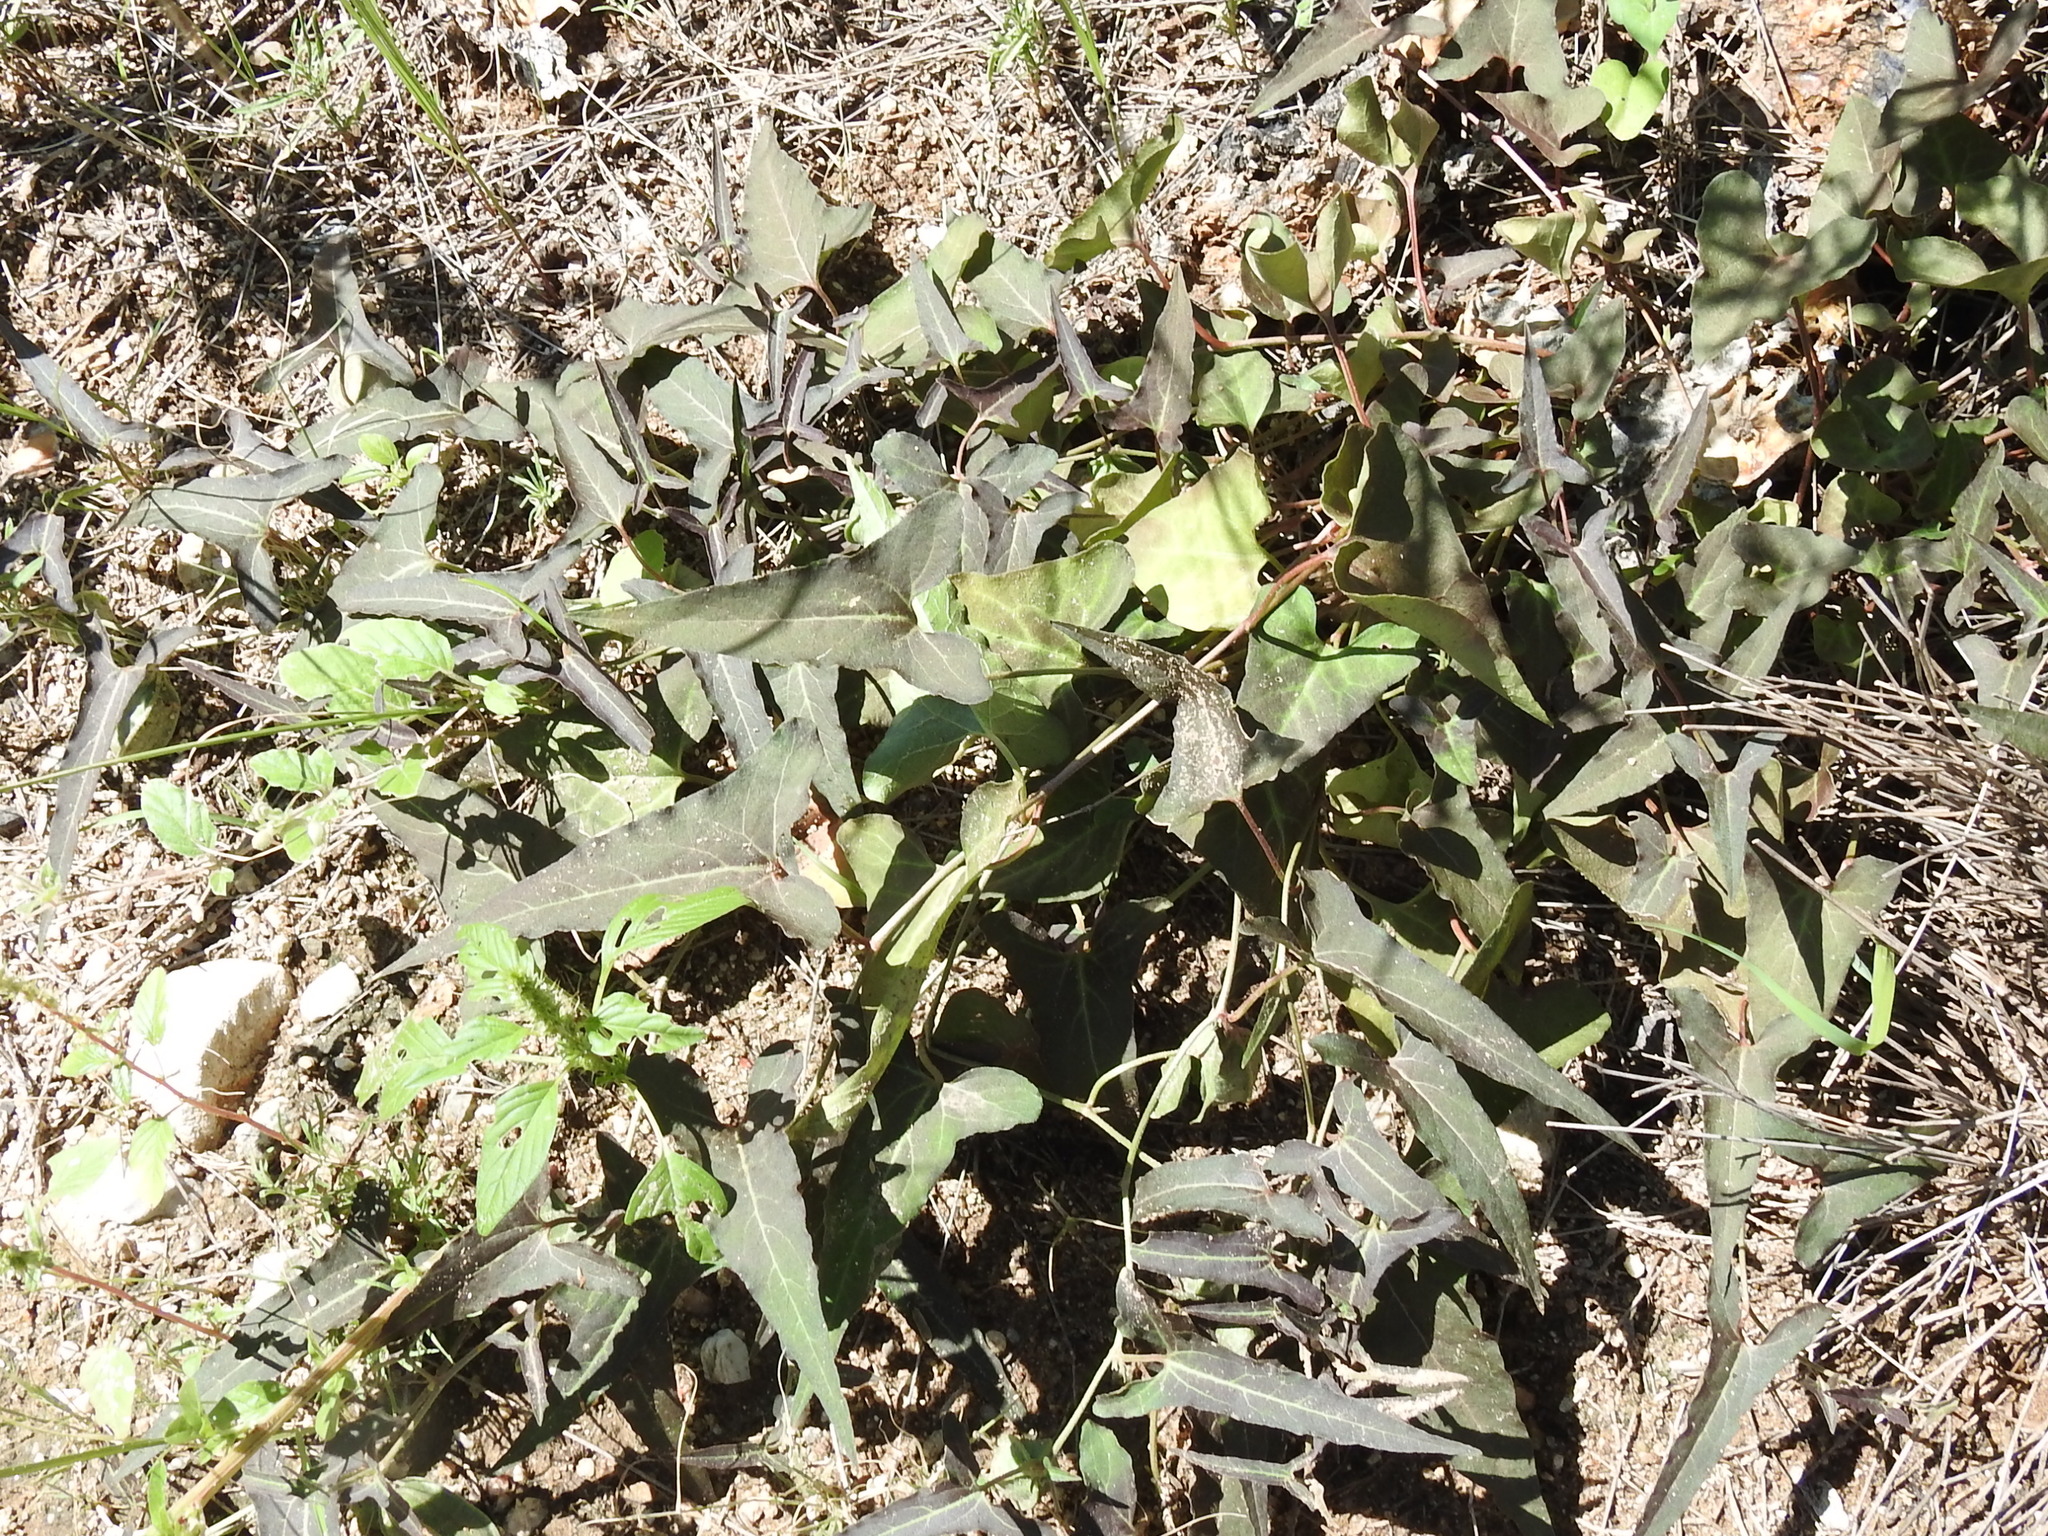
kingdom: Plantae
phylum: Tracheophyta
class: Magnoliopsida
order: Piperales
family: Aristolochiaceae
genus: Aristolochia
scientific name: Aristolochia watsonii
